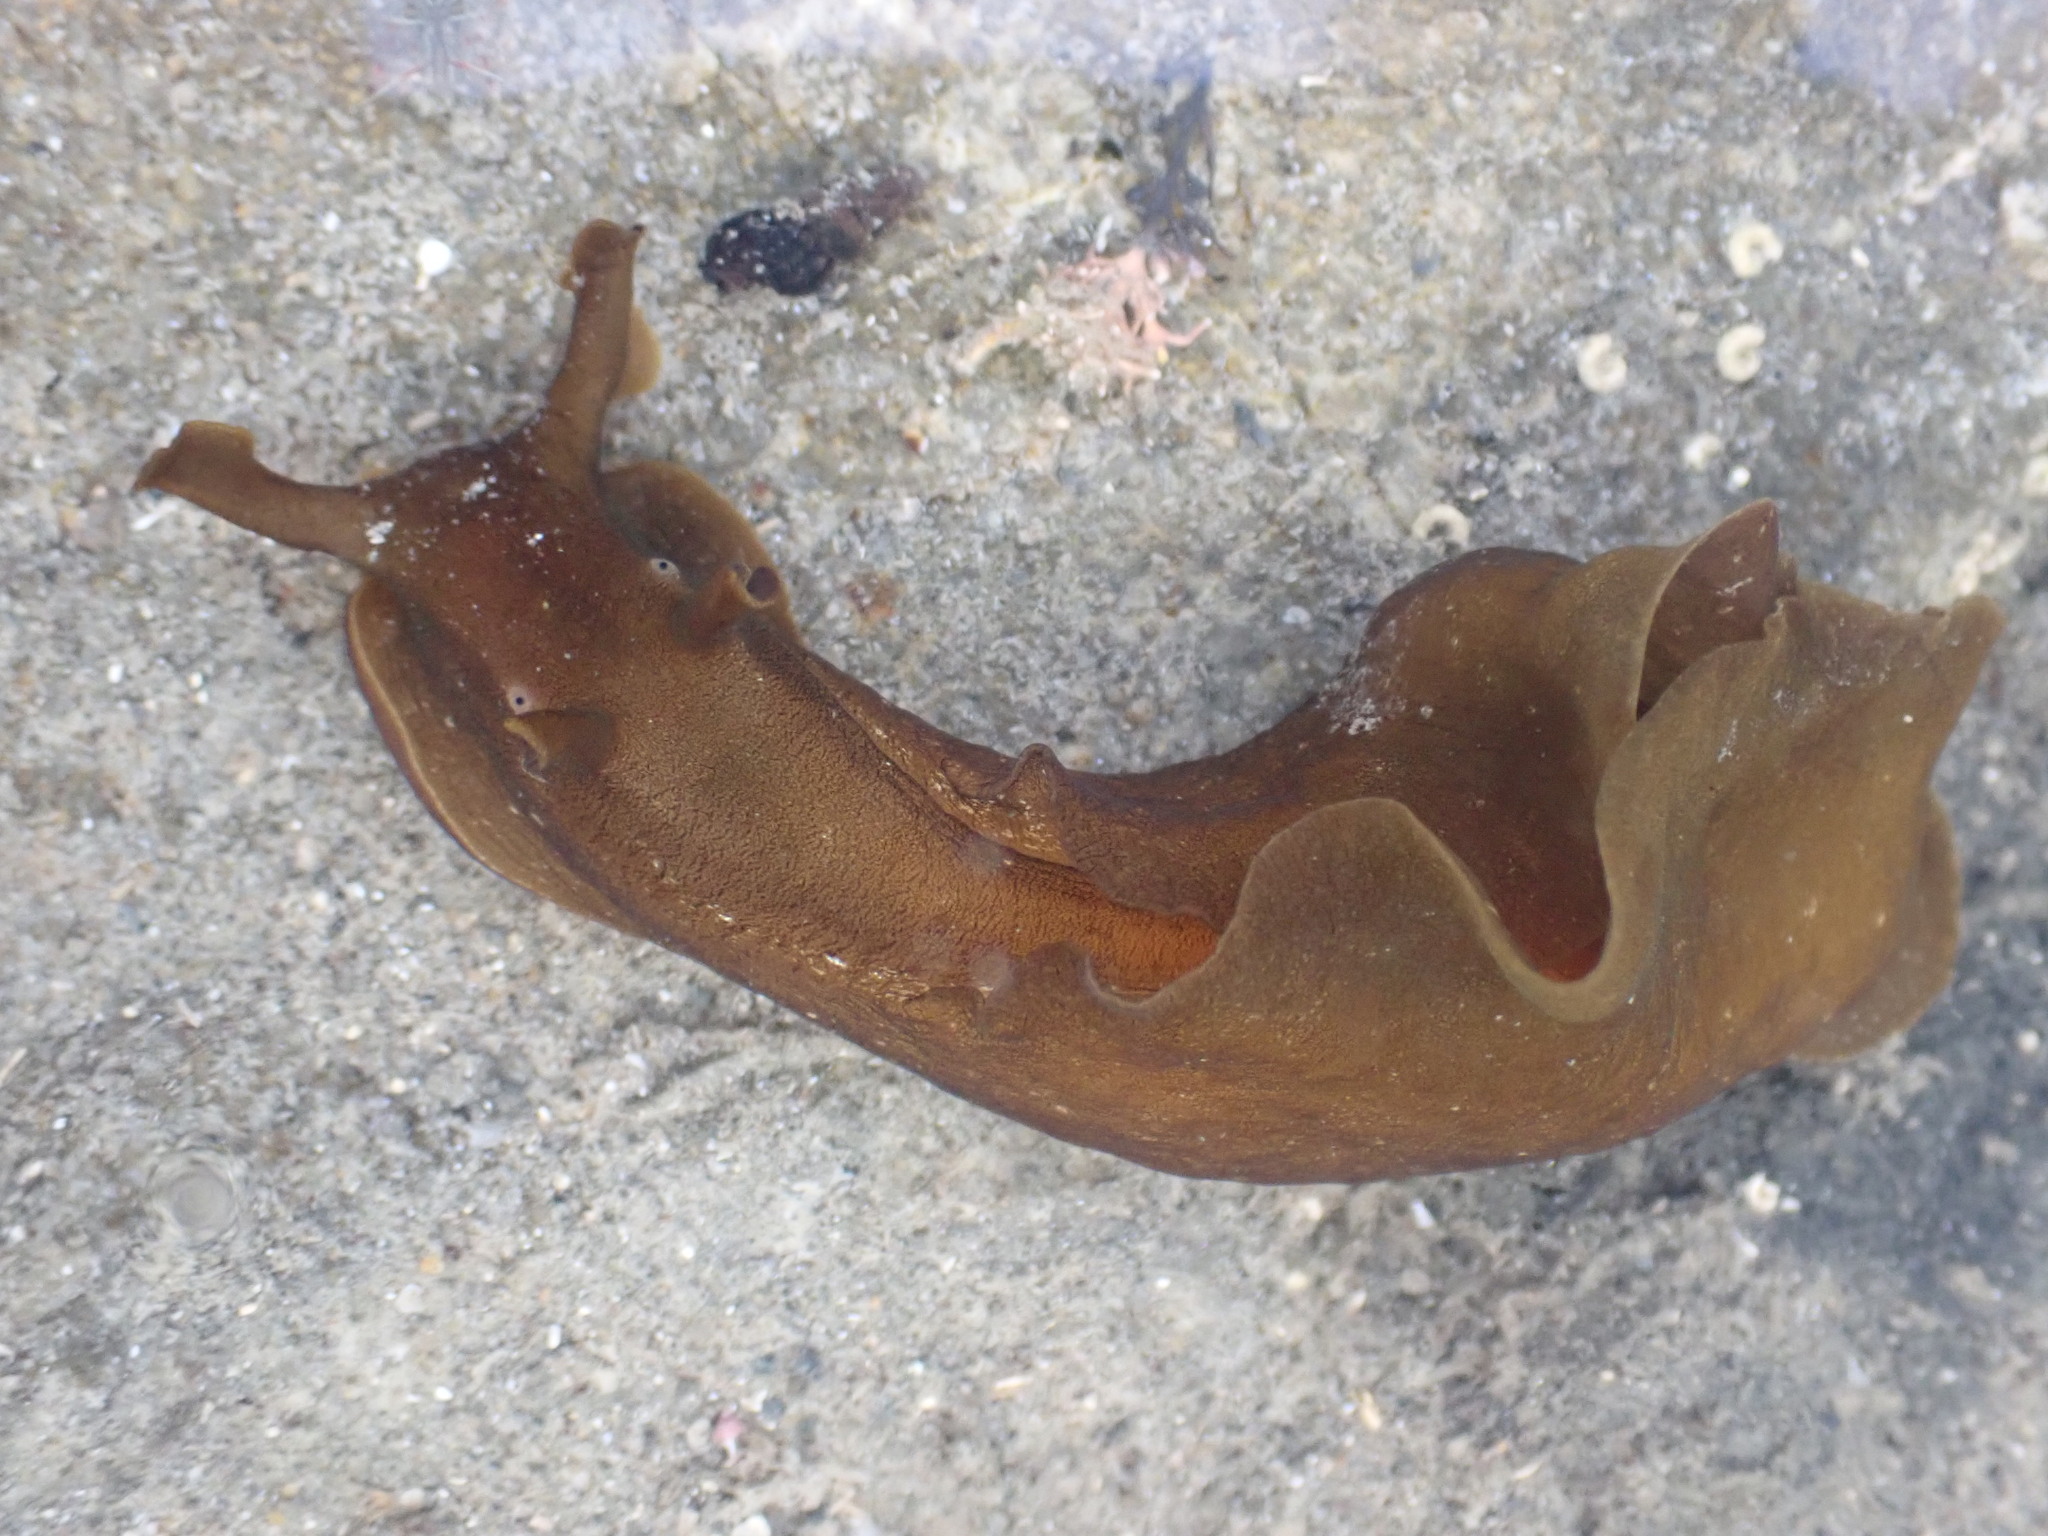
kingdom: Animalia
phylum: Mollusca
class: Gastropoda
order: Aplysiida
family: Aplysiidae
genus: Aplysia
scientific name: Aplysia juliana
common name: Walking sea hare
